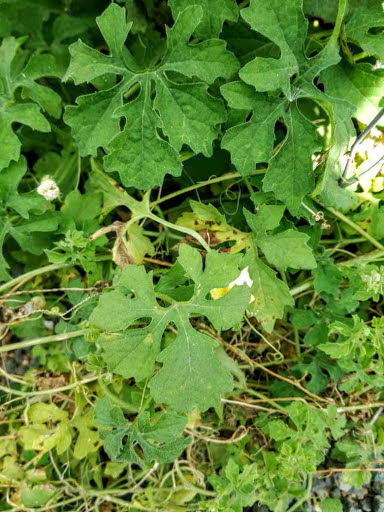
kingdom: Plantae
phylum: Tracheophyta
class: Magnoliopsida
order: Cucurbitales
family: Cucurbitaceae
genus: Momordica
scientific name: Momordica charantia
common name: Balsampear
